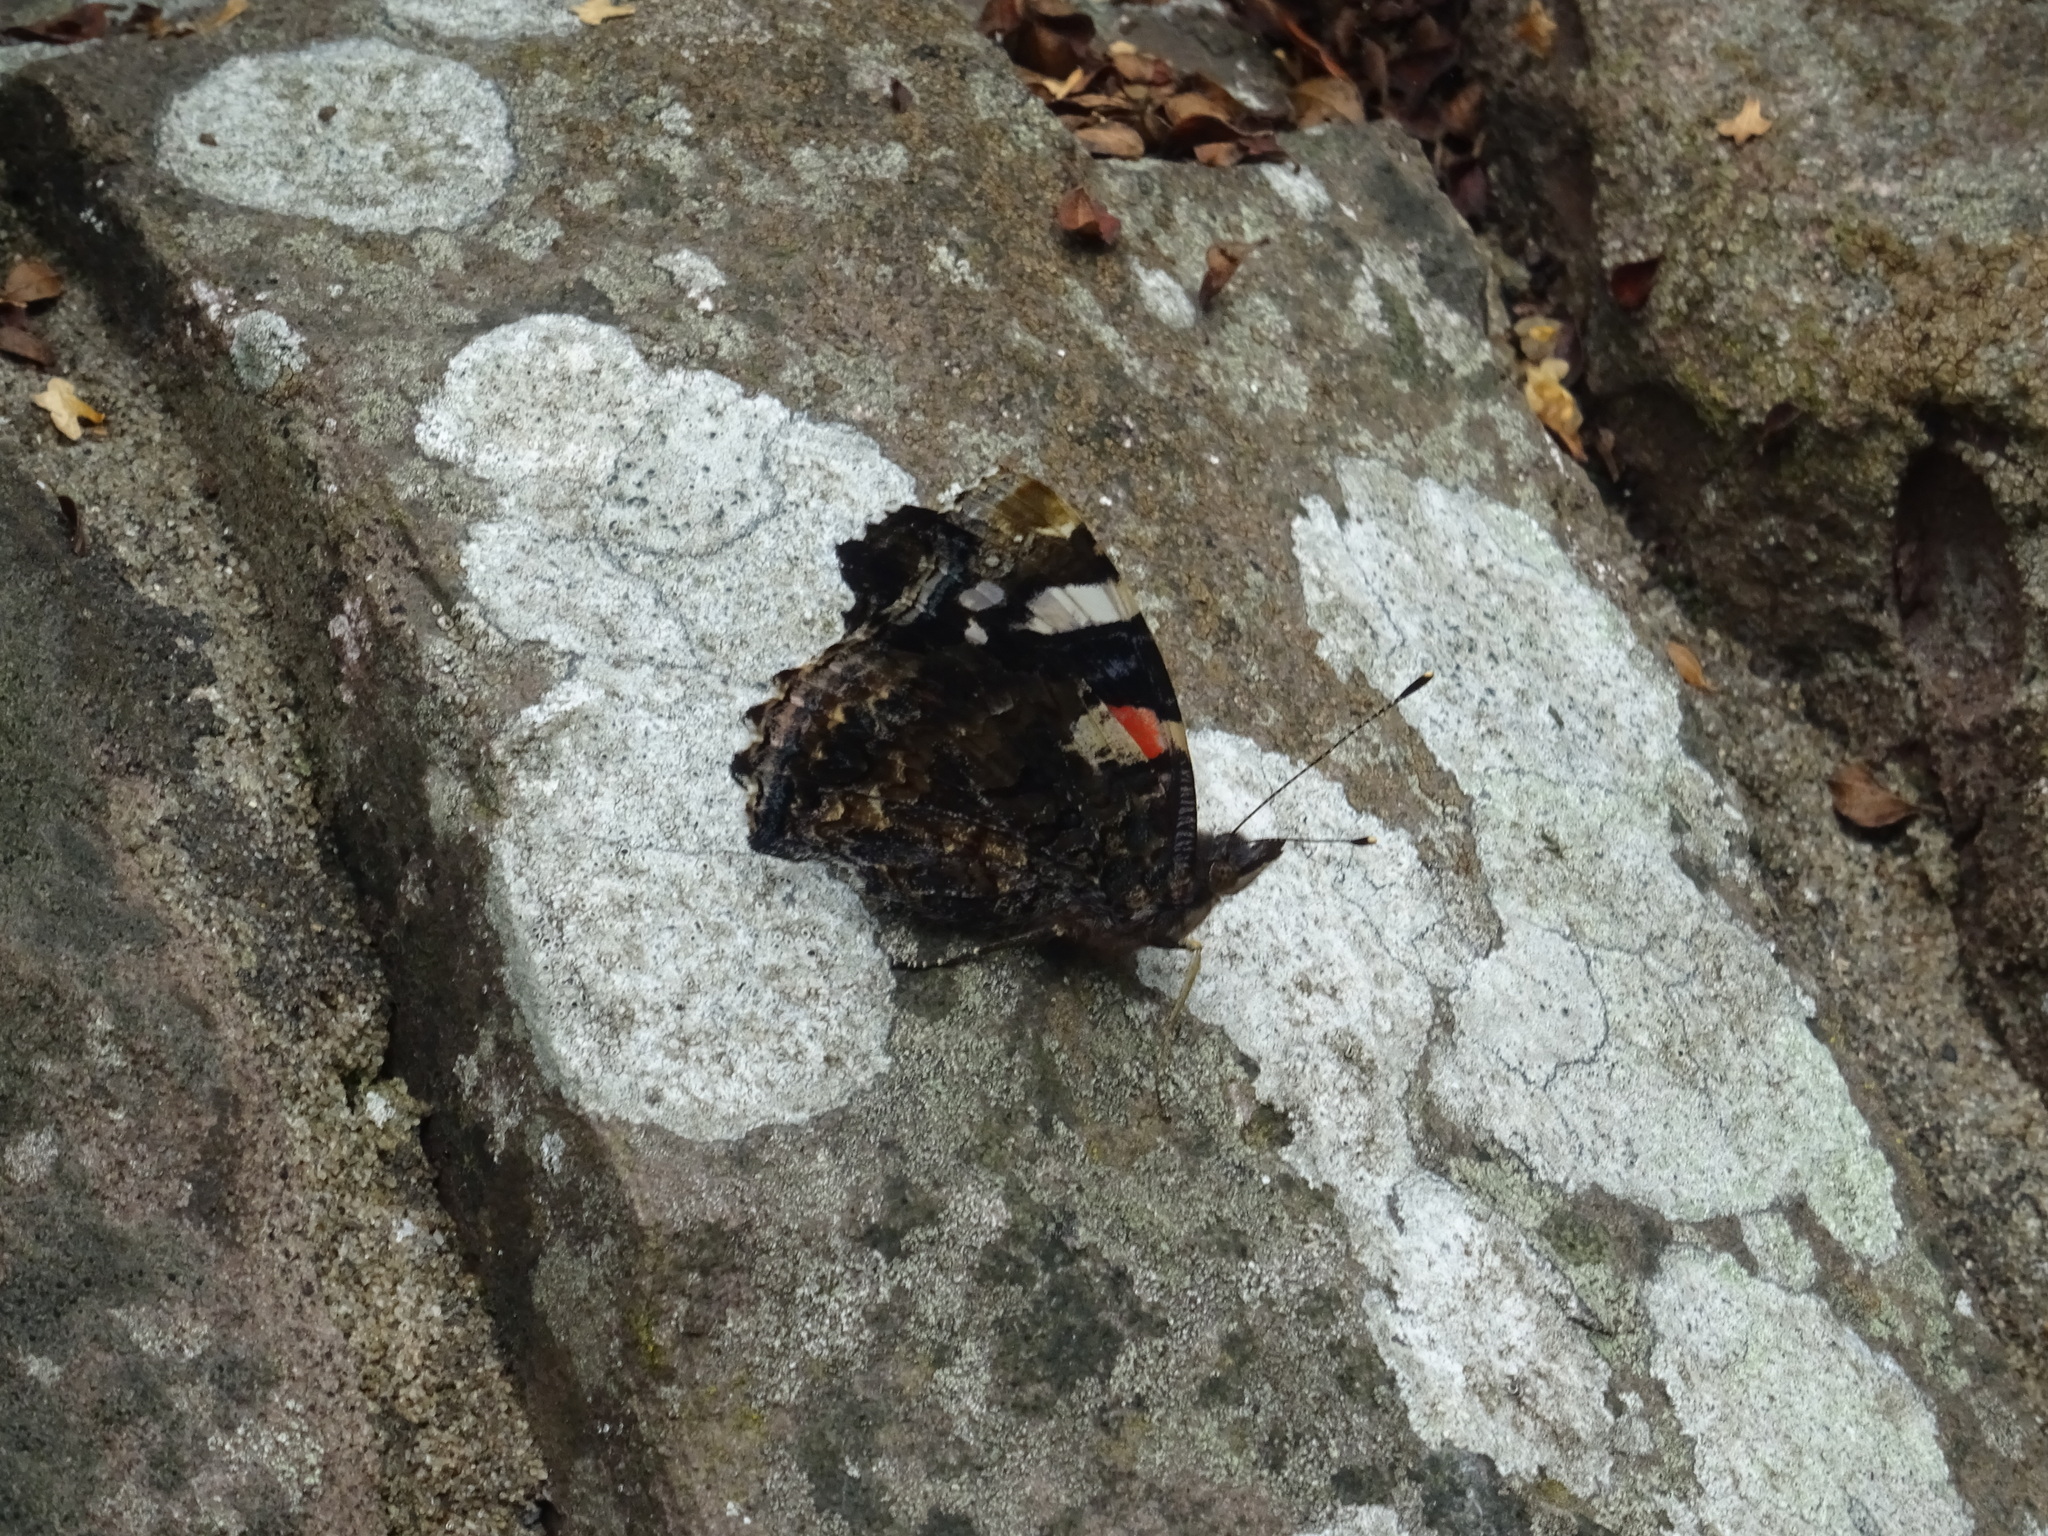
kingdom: Animalia
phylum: Arthropoda
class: Insecta
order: Lepidoptera
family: Nymphalidae
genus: Vanessa
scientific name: Vanessa atalanta
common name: Red admiral
